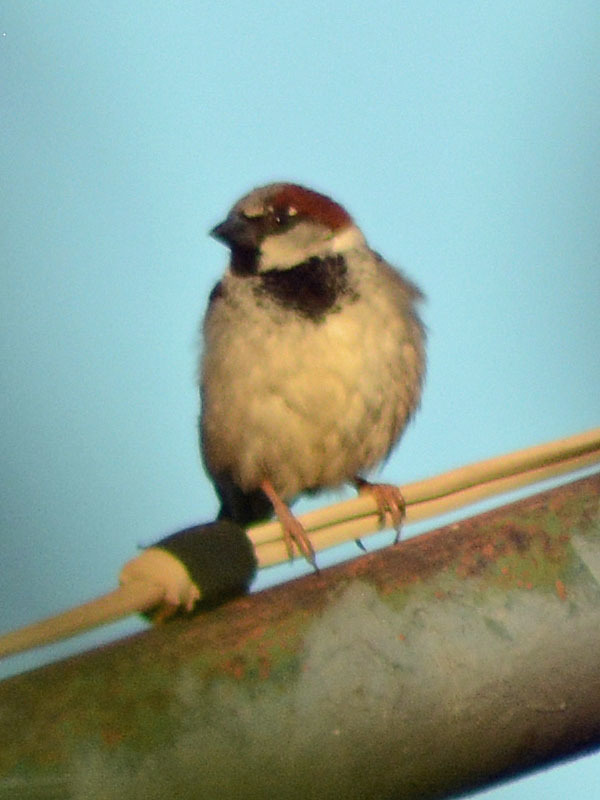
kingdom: Animalia
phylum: Chordata
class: Aves
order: Passeriformes
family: Passeridae
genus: Passer
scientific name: Passer domesticus
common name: House sparrow
